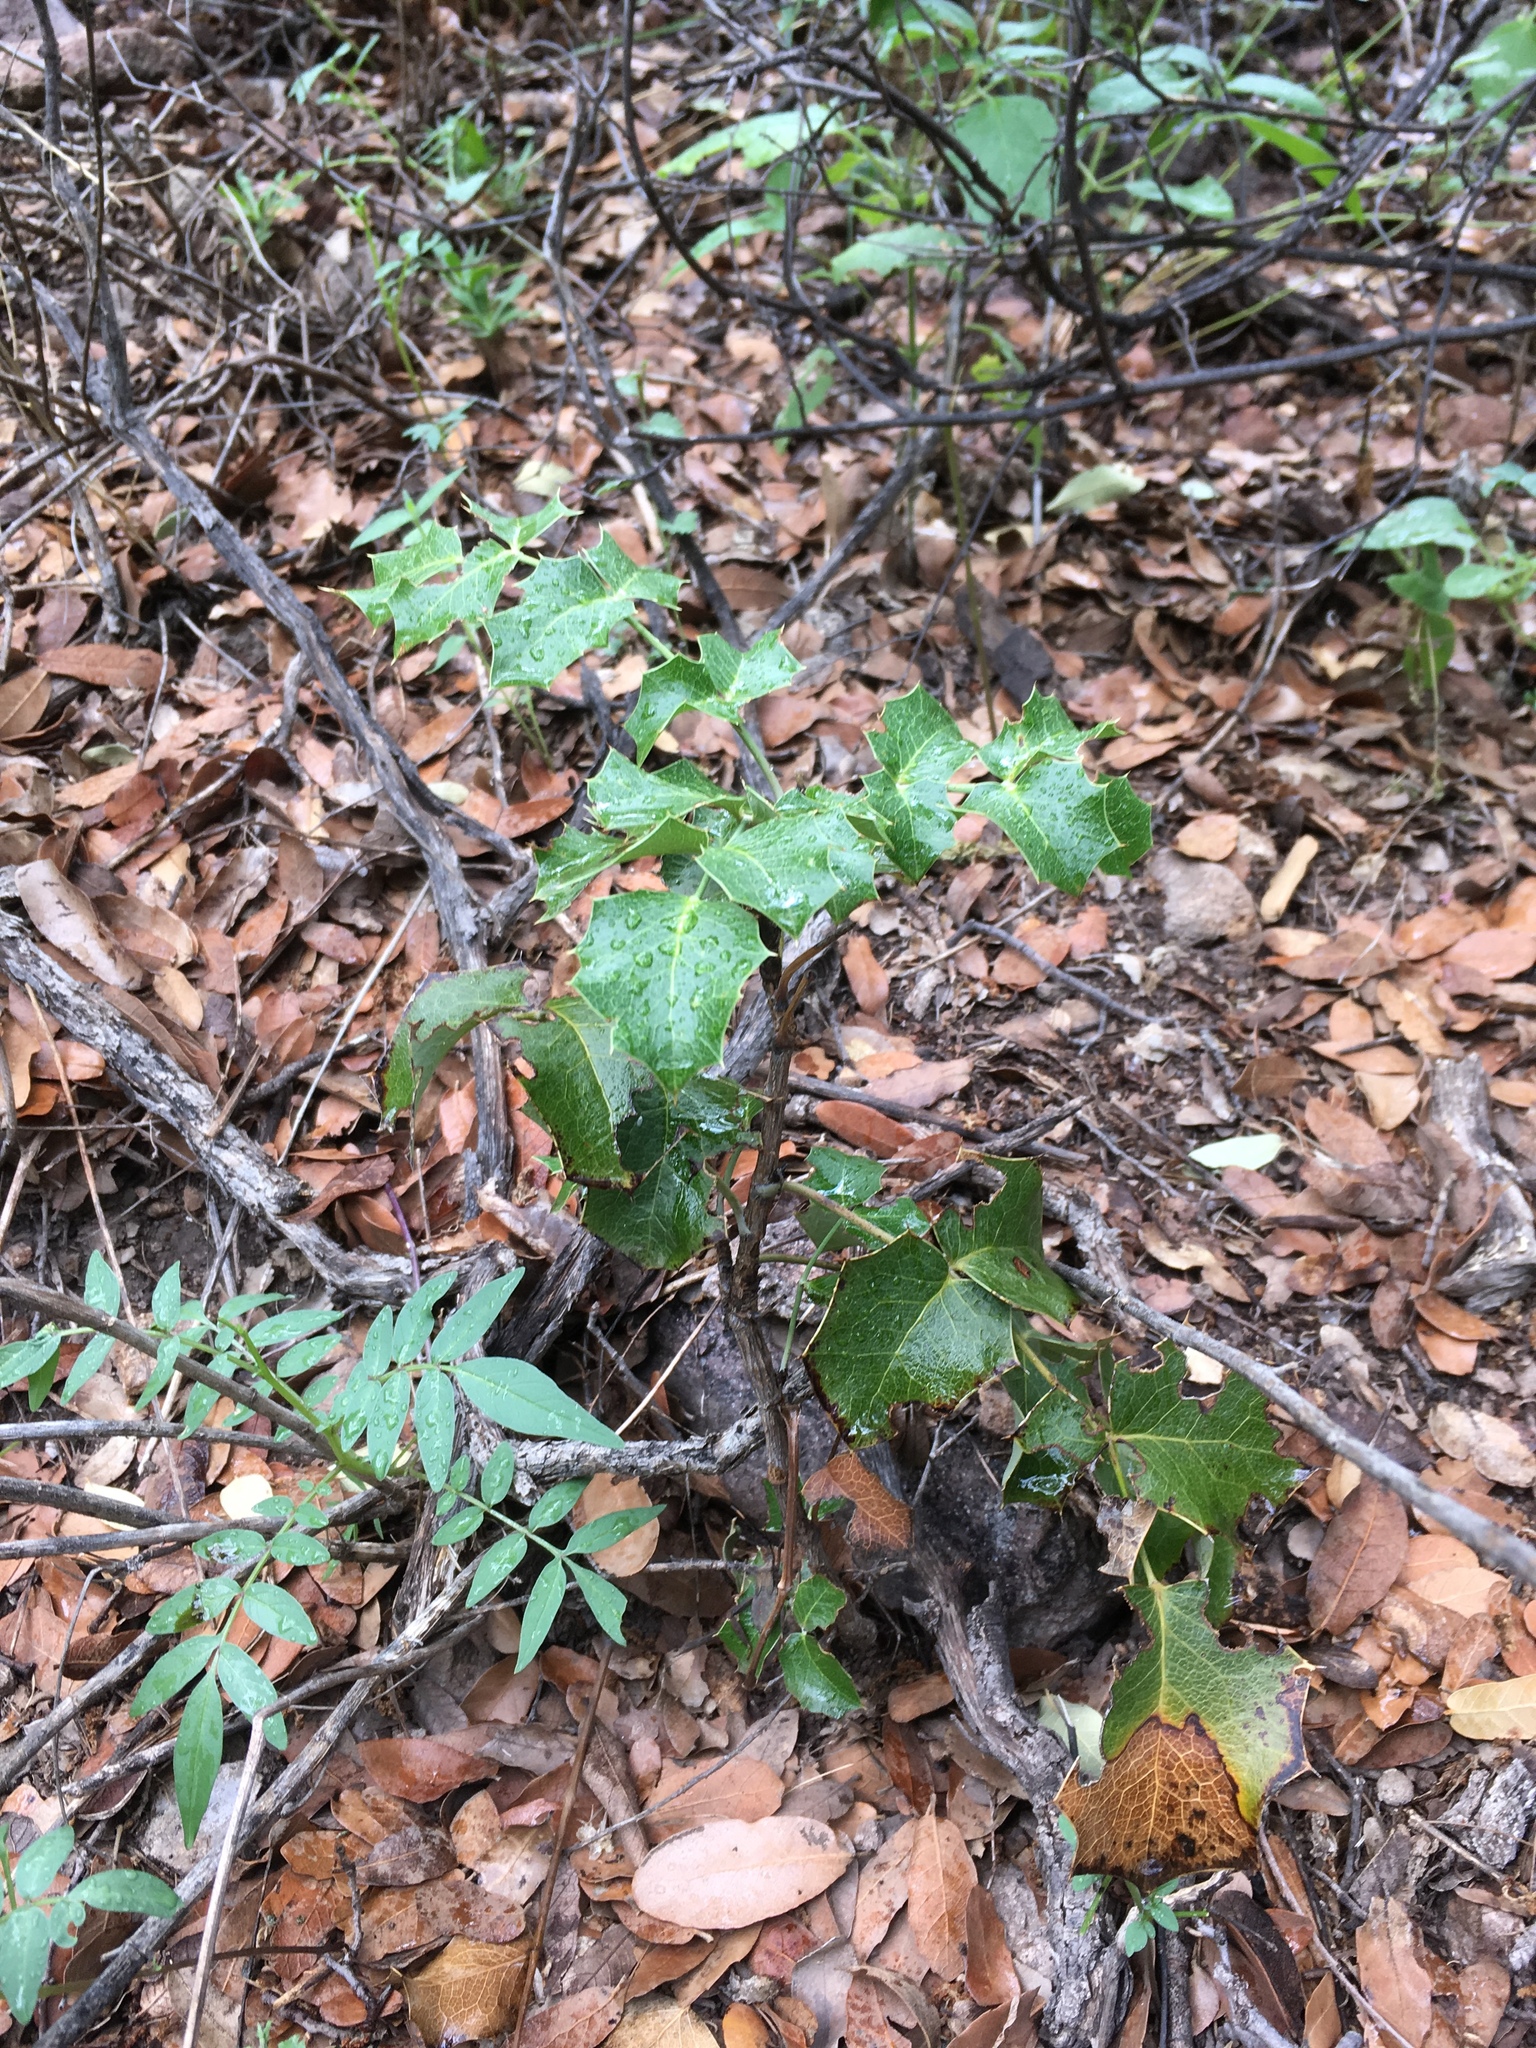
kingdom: Plantae
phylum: Tracheophyta
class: Magnoliopsida
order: Ranunculales
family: Berberidaceae
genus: Mahonia
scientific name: Mahonia wilcoxii
